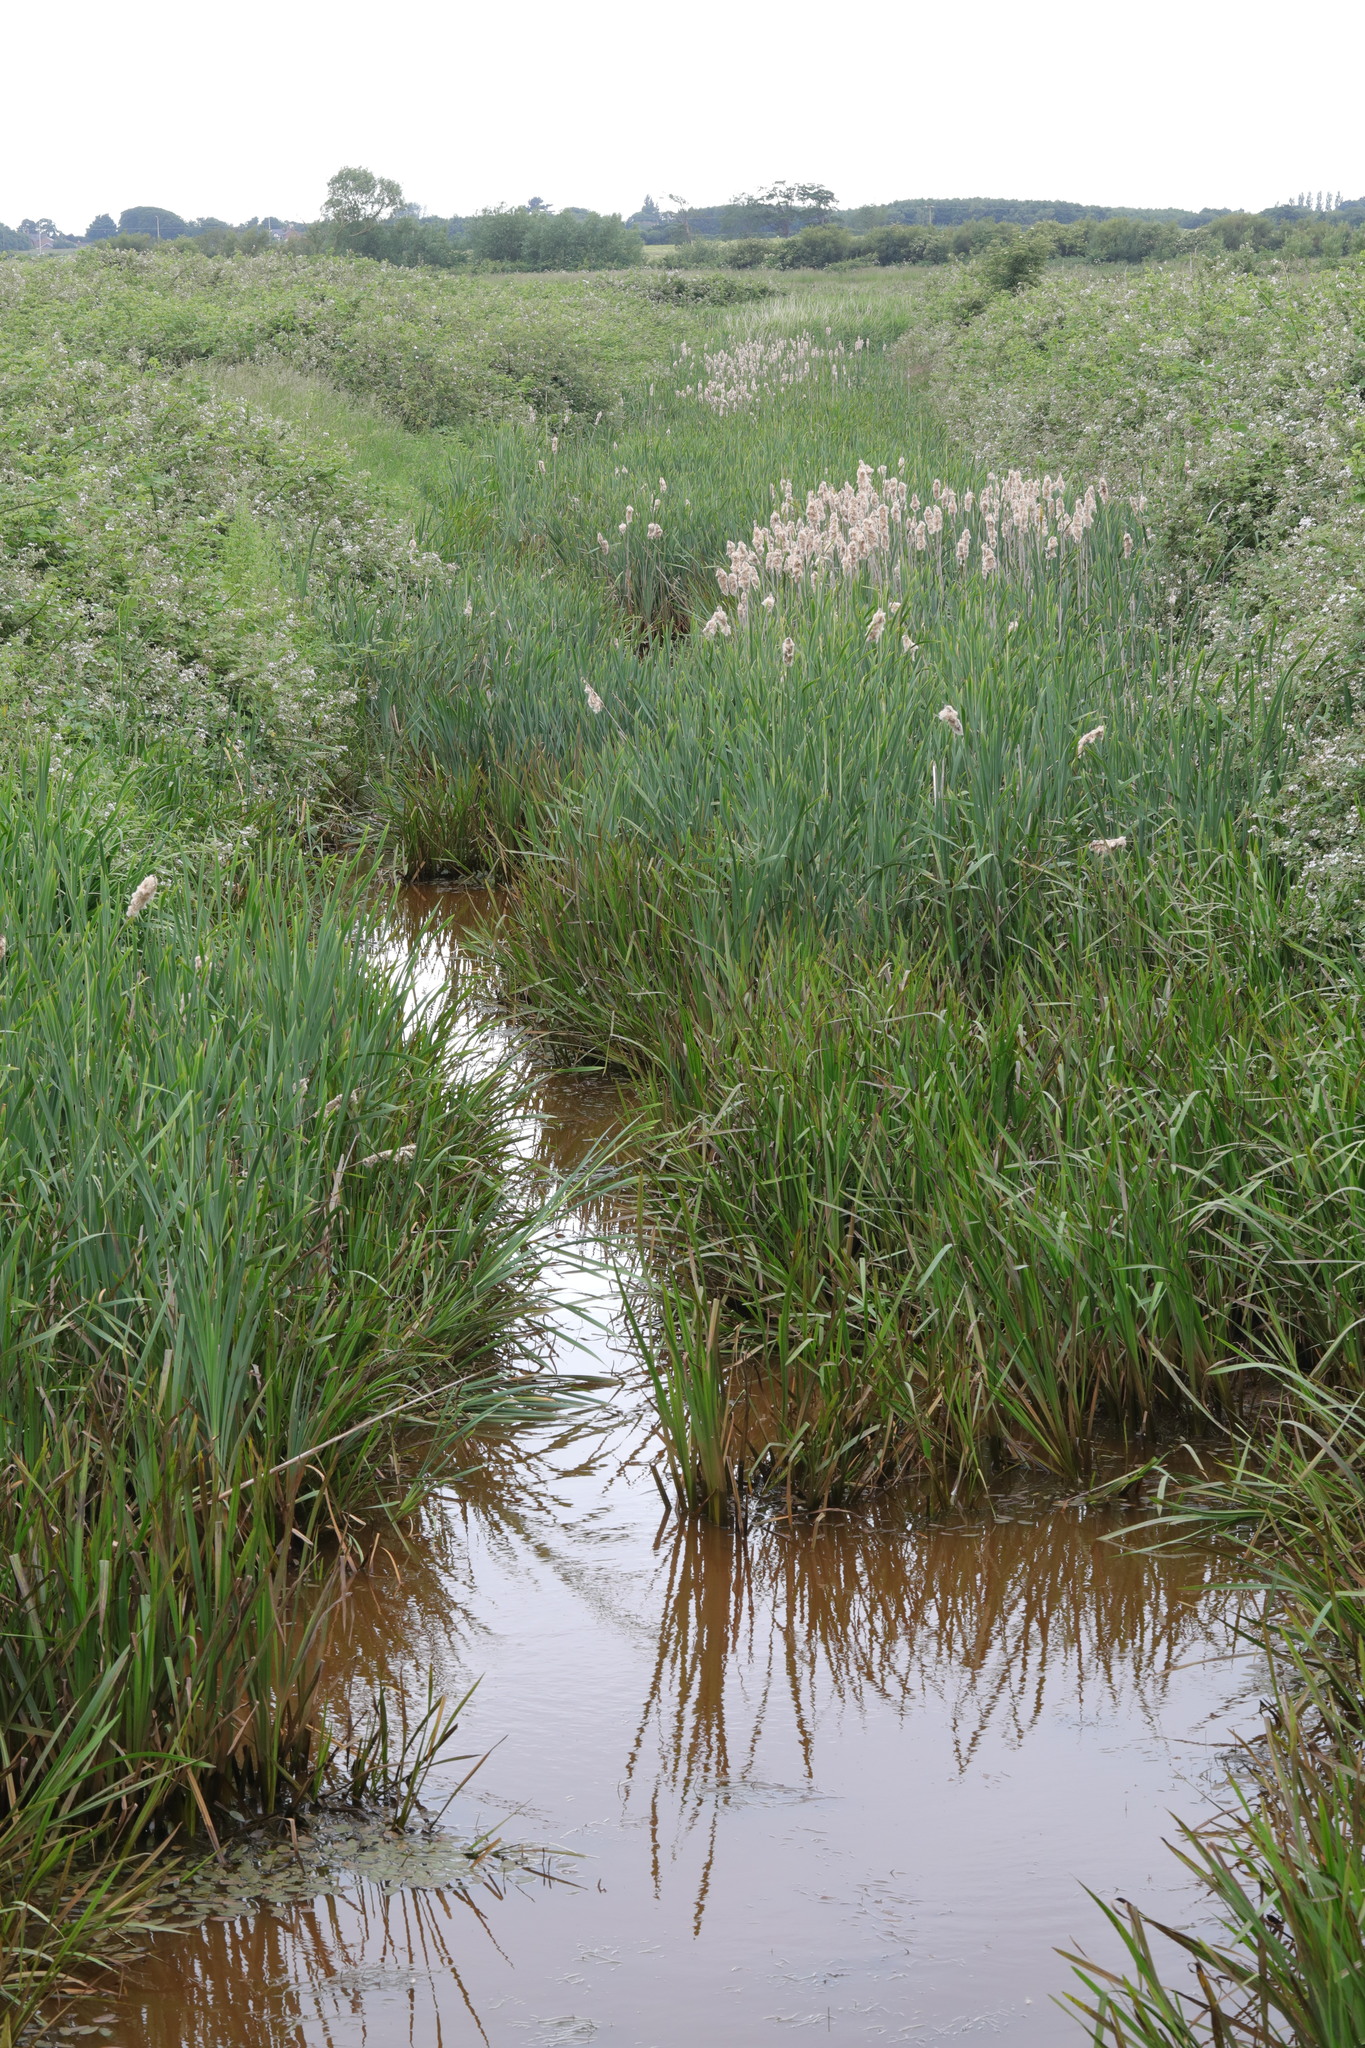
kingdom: Plantae
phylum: Tracheophyta
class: Liliopsida
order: Poales
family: Typhaceae
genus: Typha
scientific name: Typha latifolia
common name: Broadleaf cattail
